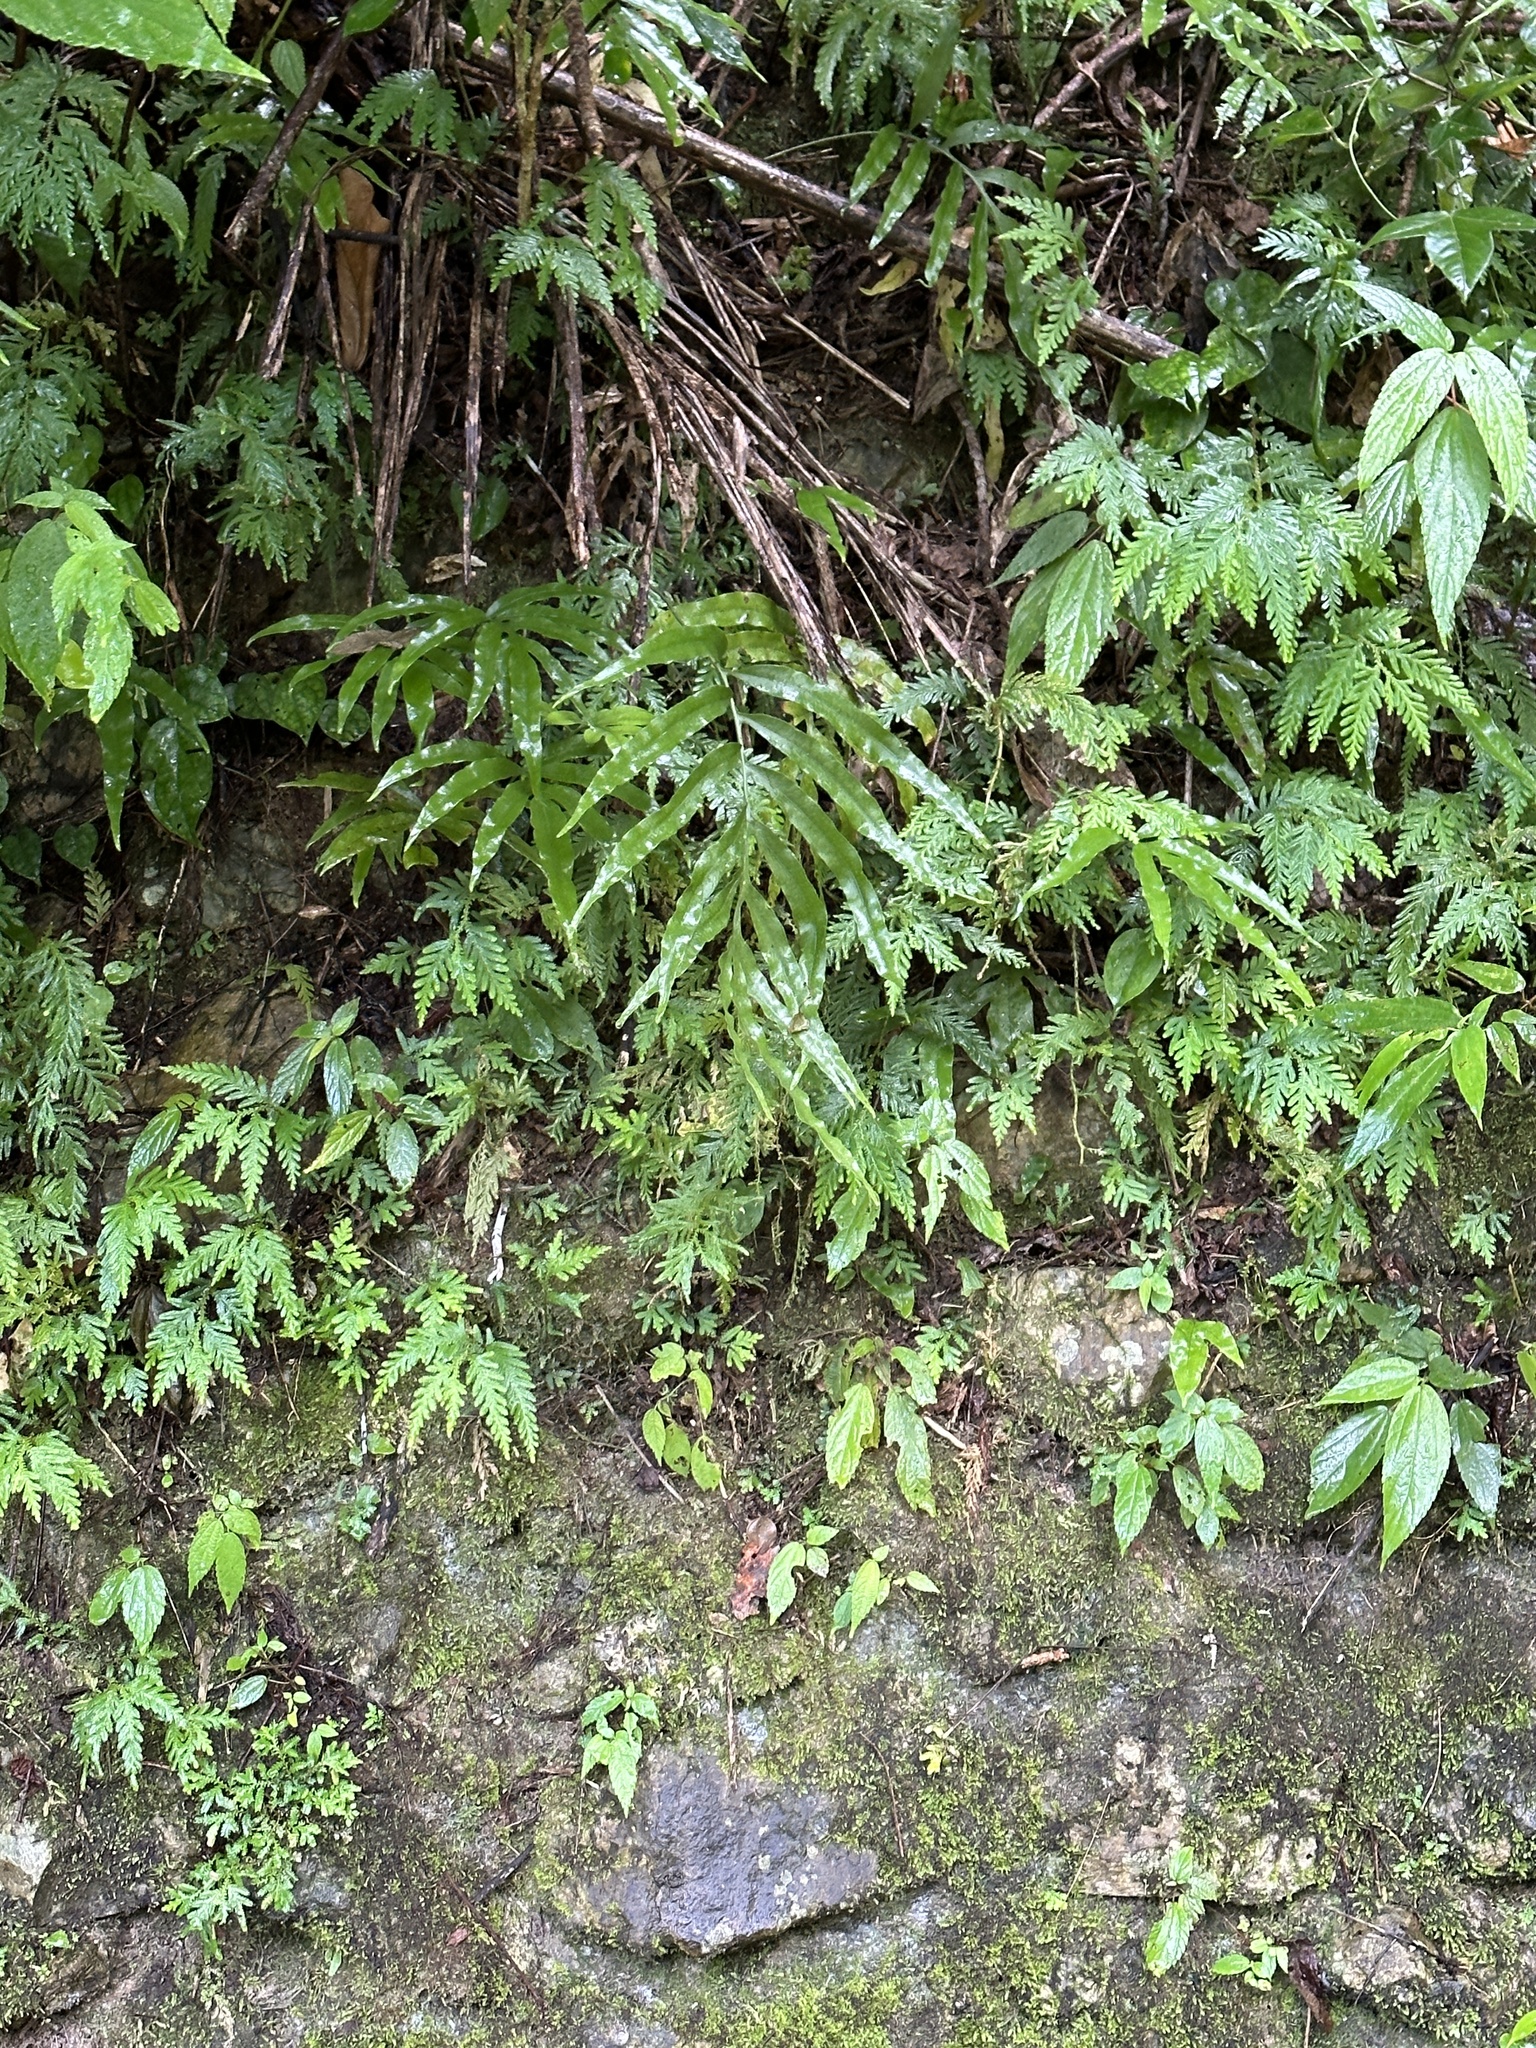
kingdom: Plantae
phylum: Tracheophyta
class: Polypodiopsida
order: Polypodiales
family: Polypodiaceae
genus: Leptochilus
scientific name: Leptochilus ellipticus
